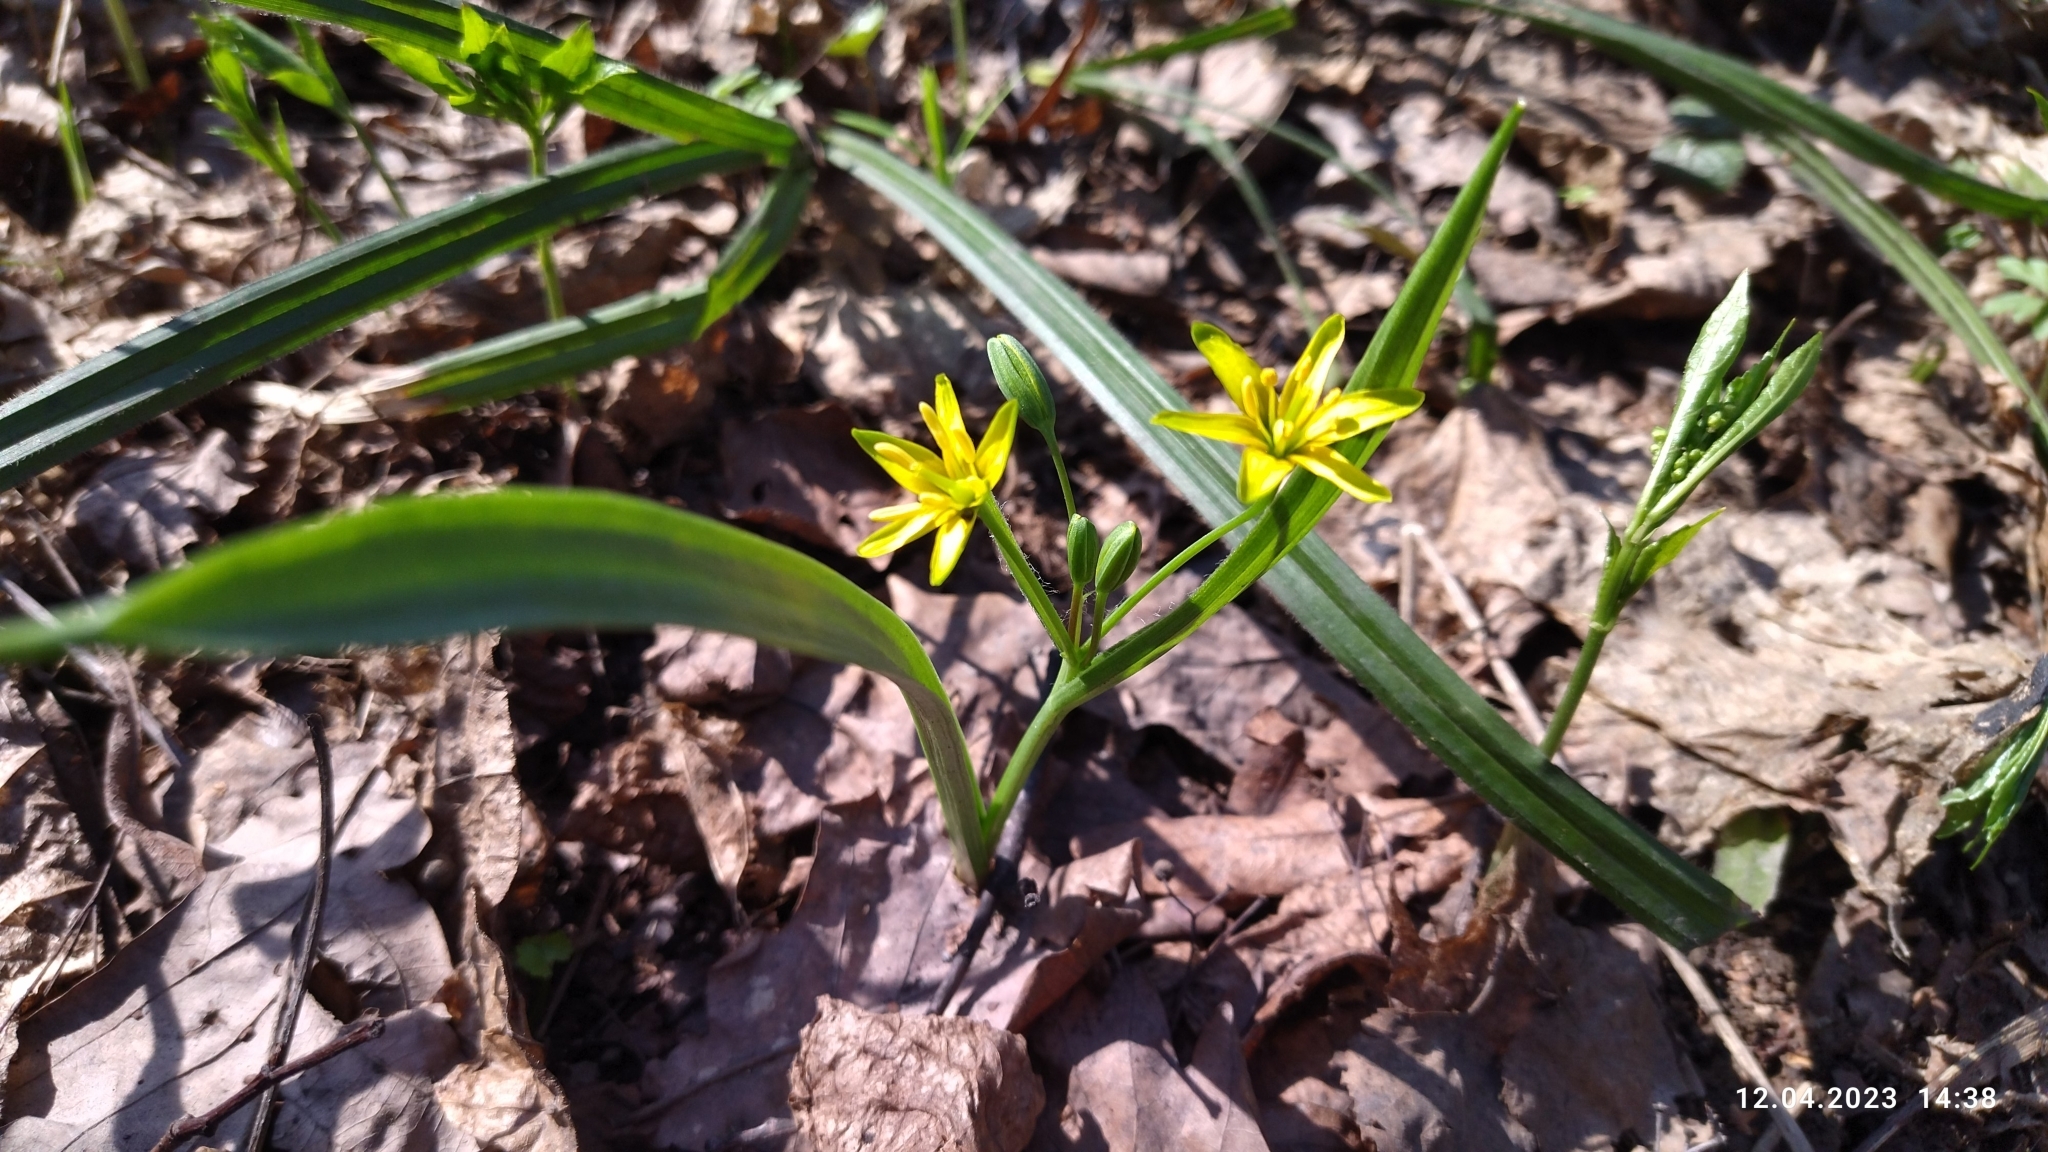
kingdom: Plantae
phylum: Tracheophyta
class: Liliopsida
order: Liliales
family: Liliaceae
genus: Gagea
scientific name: Gagea lutea
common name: Yellow star-of-bethlehem
